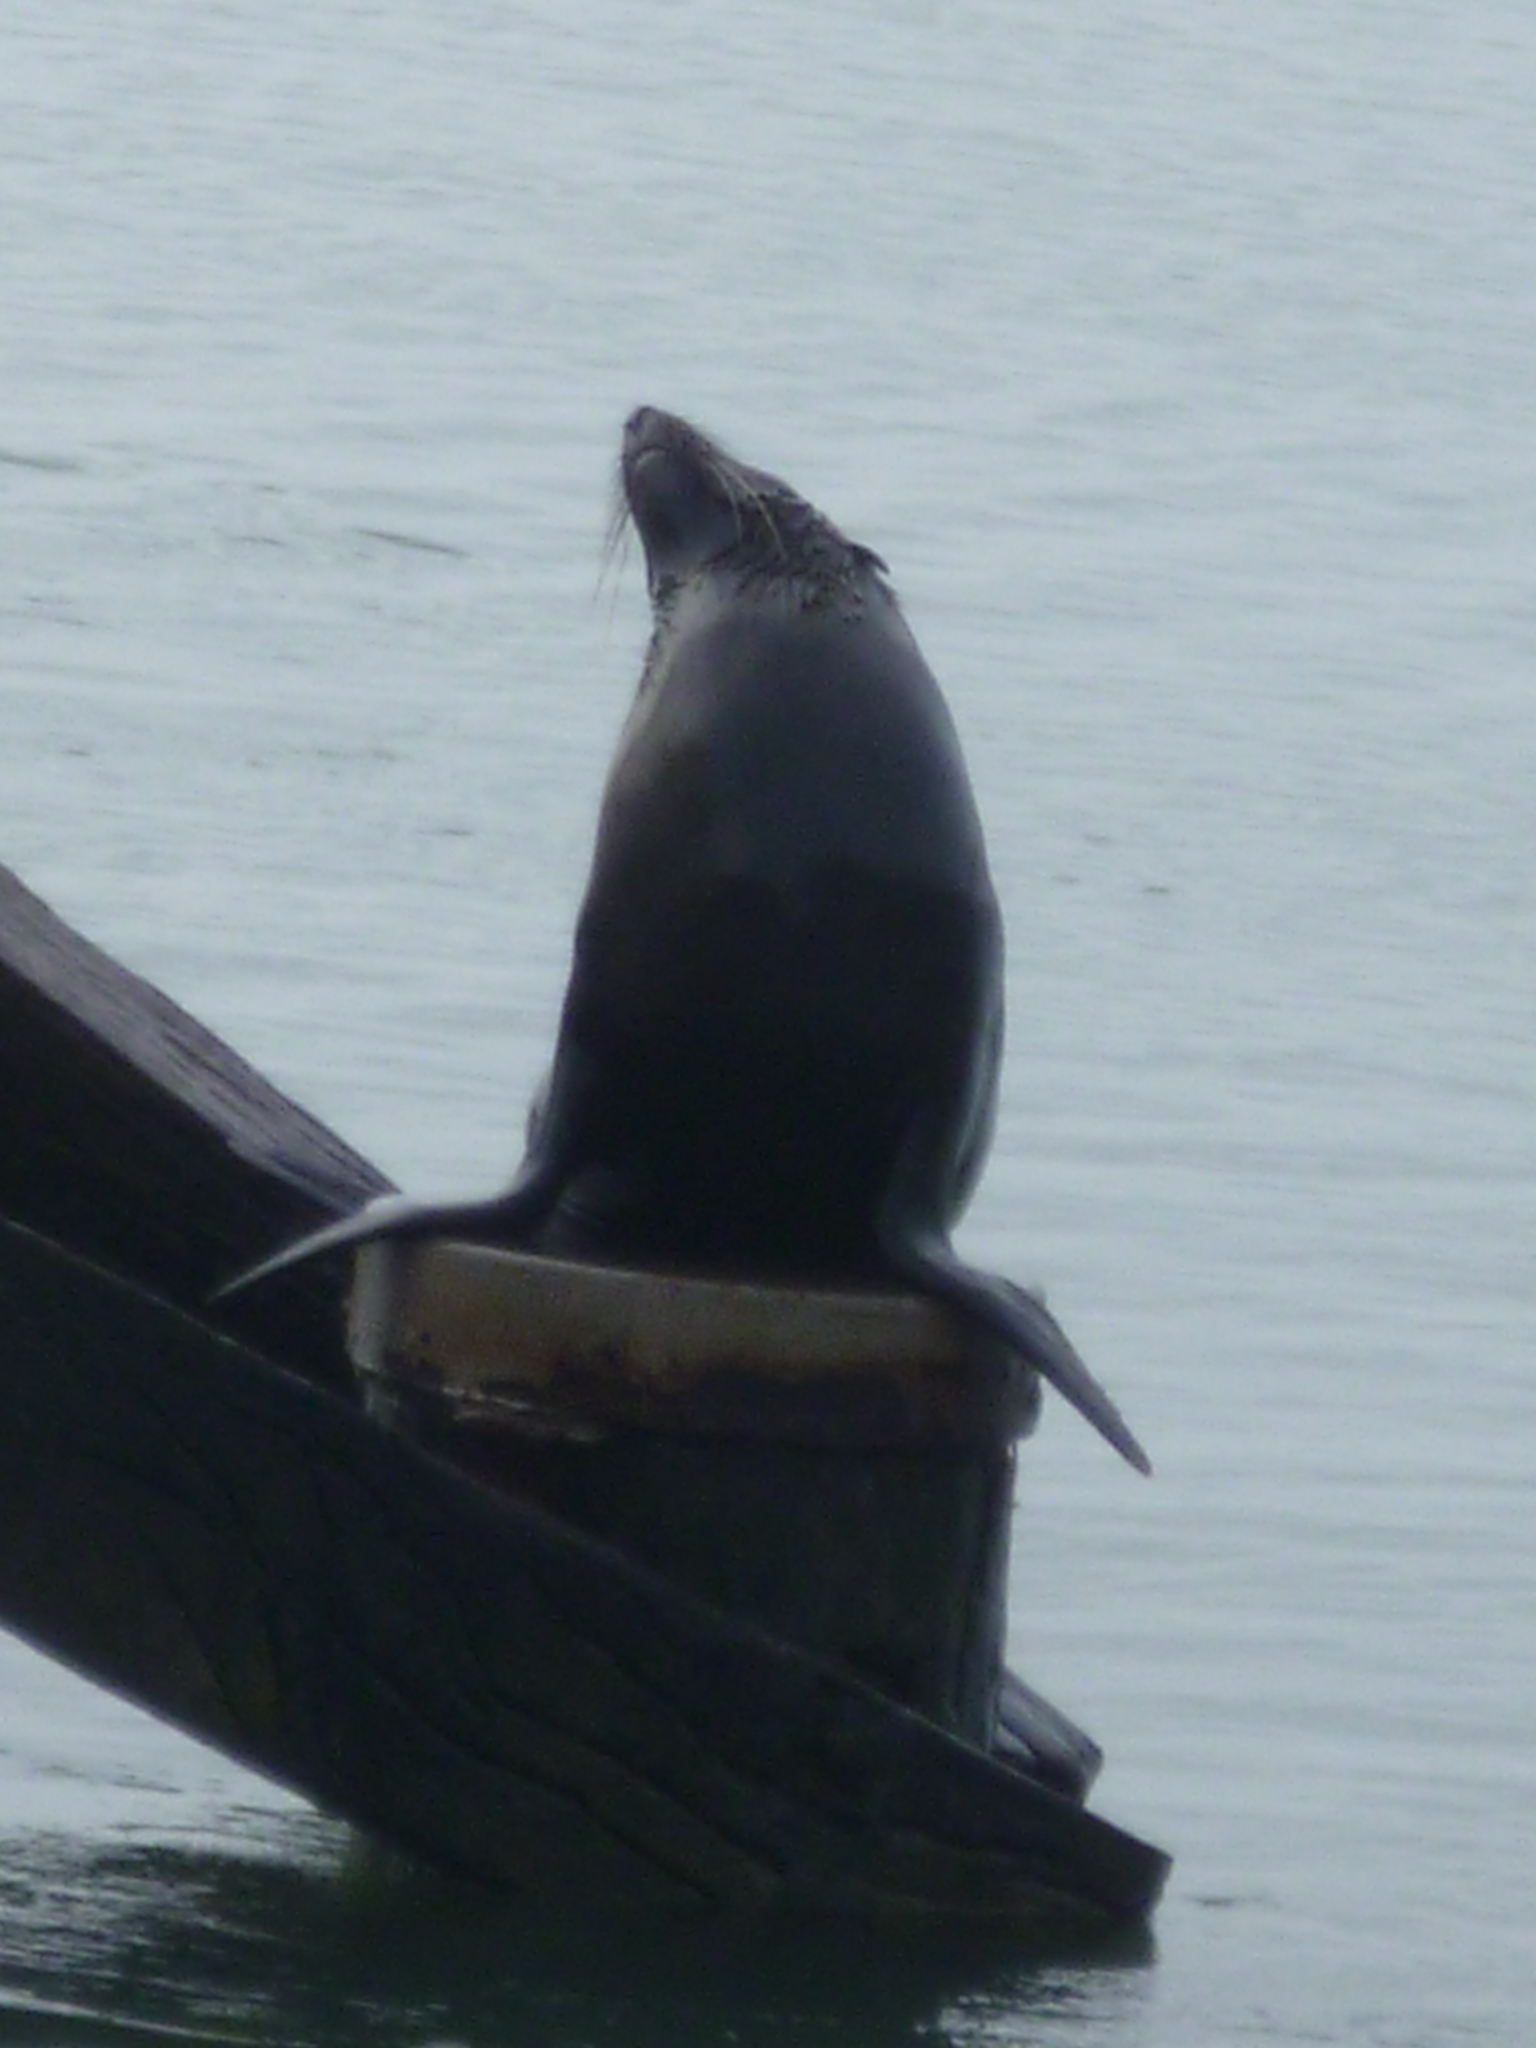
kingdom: Animalia
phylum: Chordata
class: Mammalia
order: Carnivora
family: Otariidae
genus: Arctocephalus
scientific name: Arctocephalus forsteri
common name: New zealand fur seal
